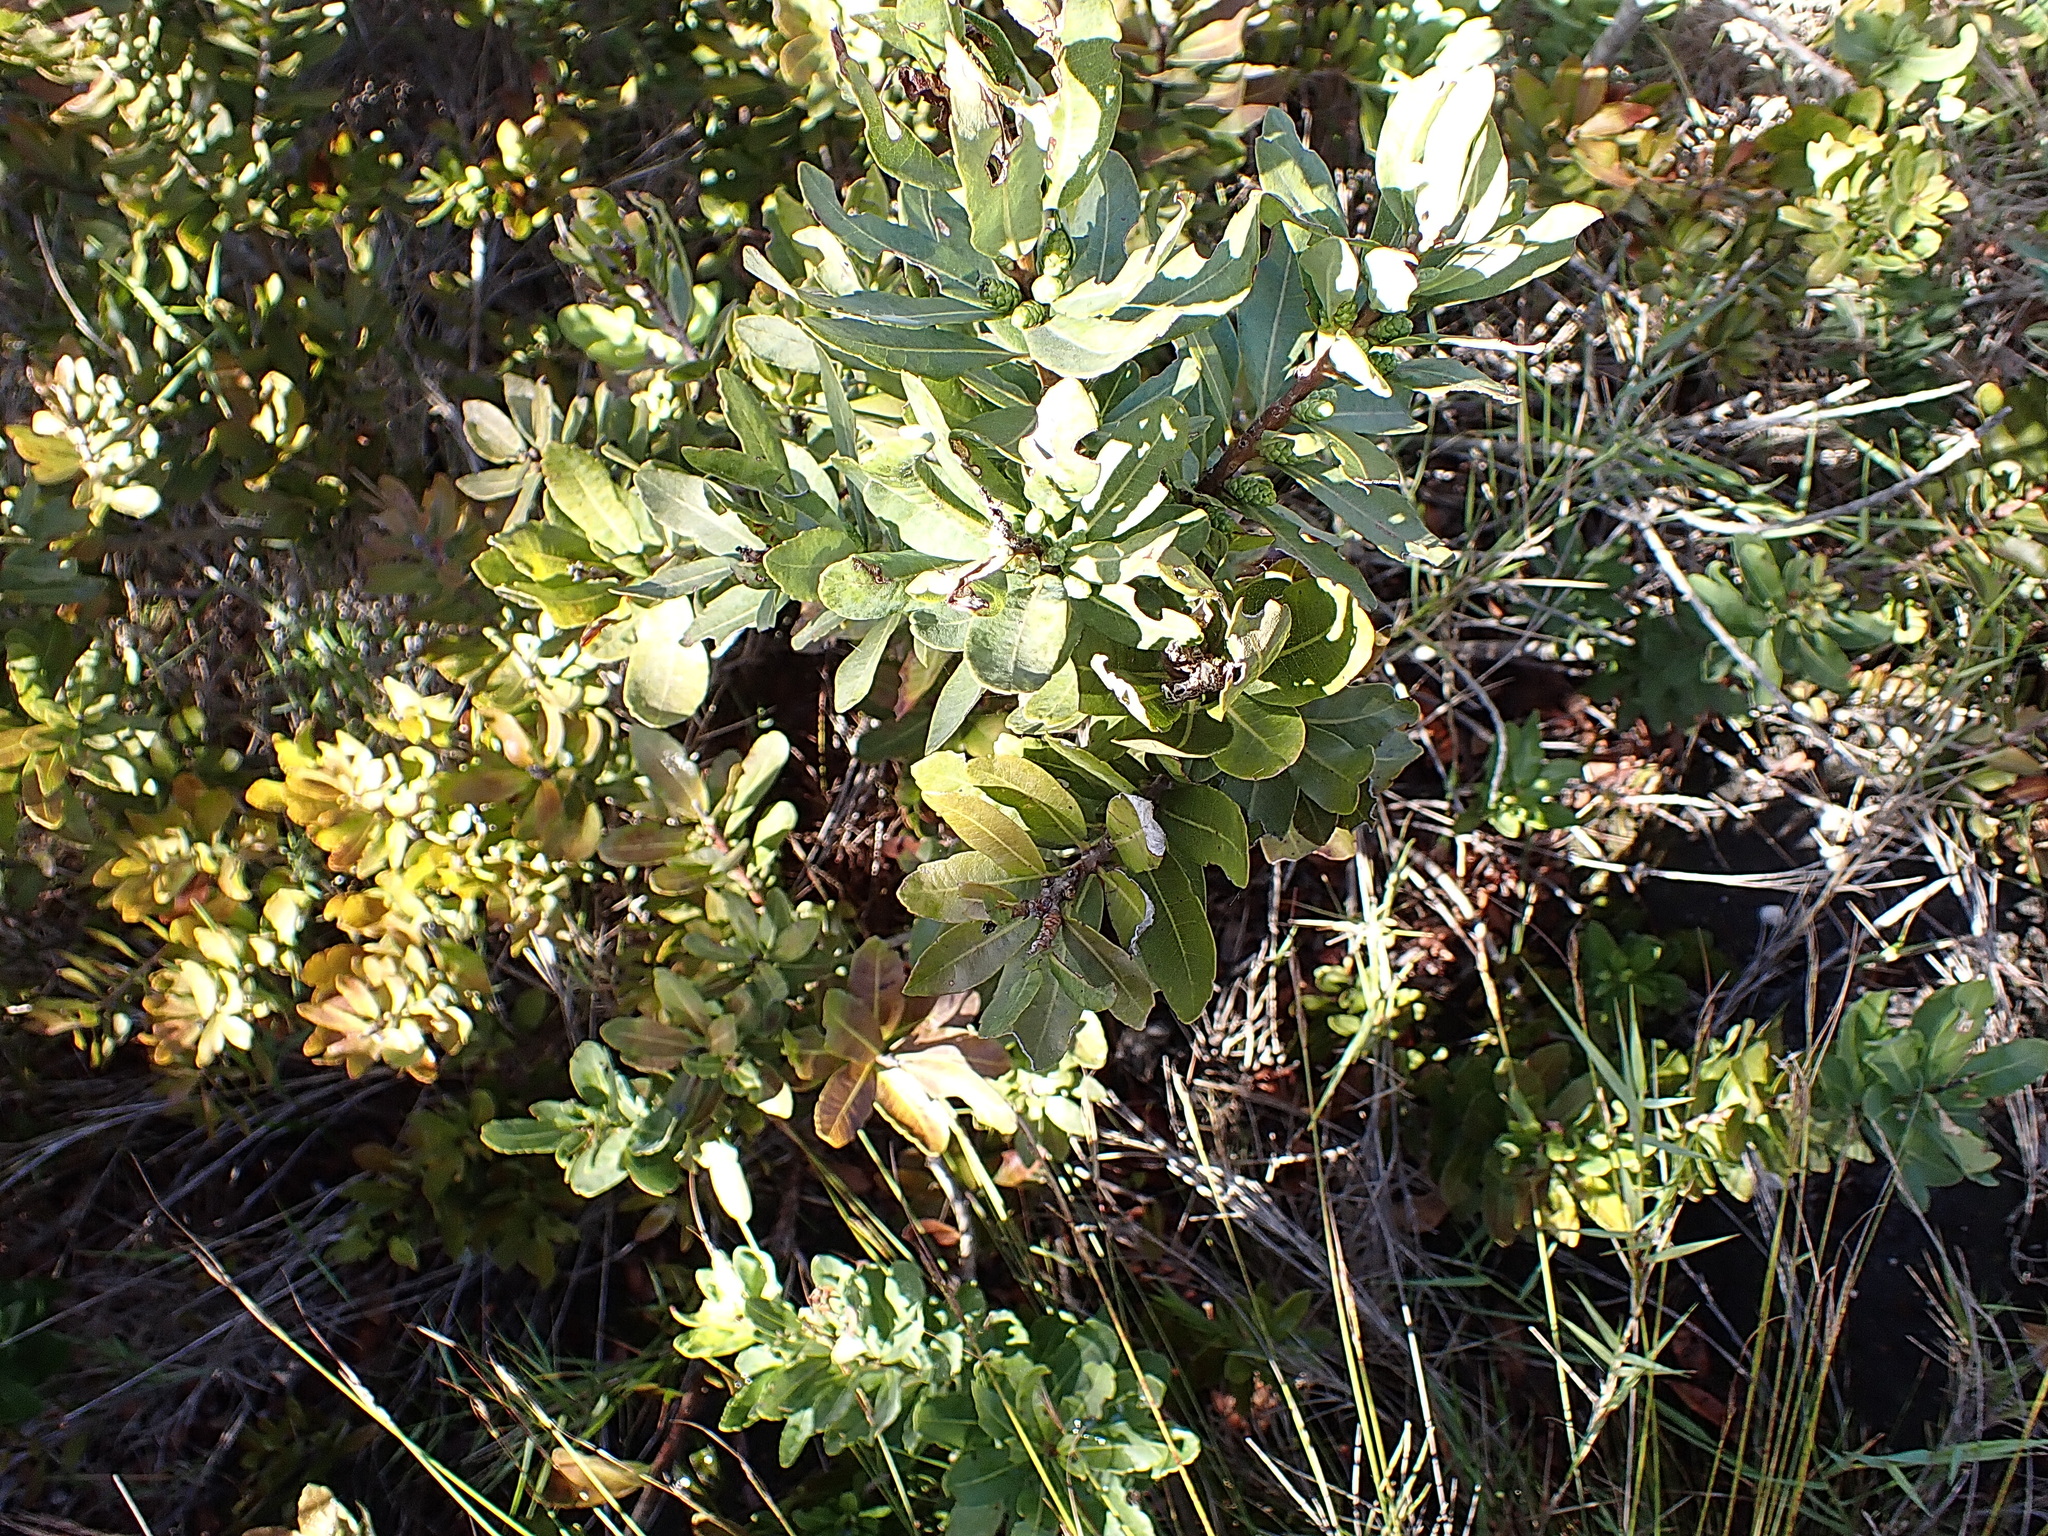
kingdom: Plantae
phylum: Tracheophyta
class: Magnoliopsida
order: Fagales
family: Myricaceae
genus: Morella
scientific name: Morella humilis
